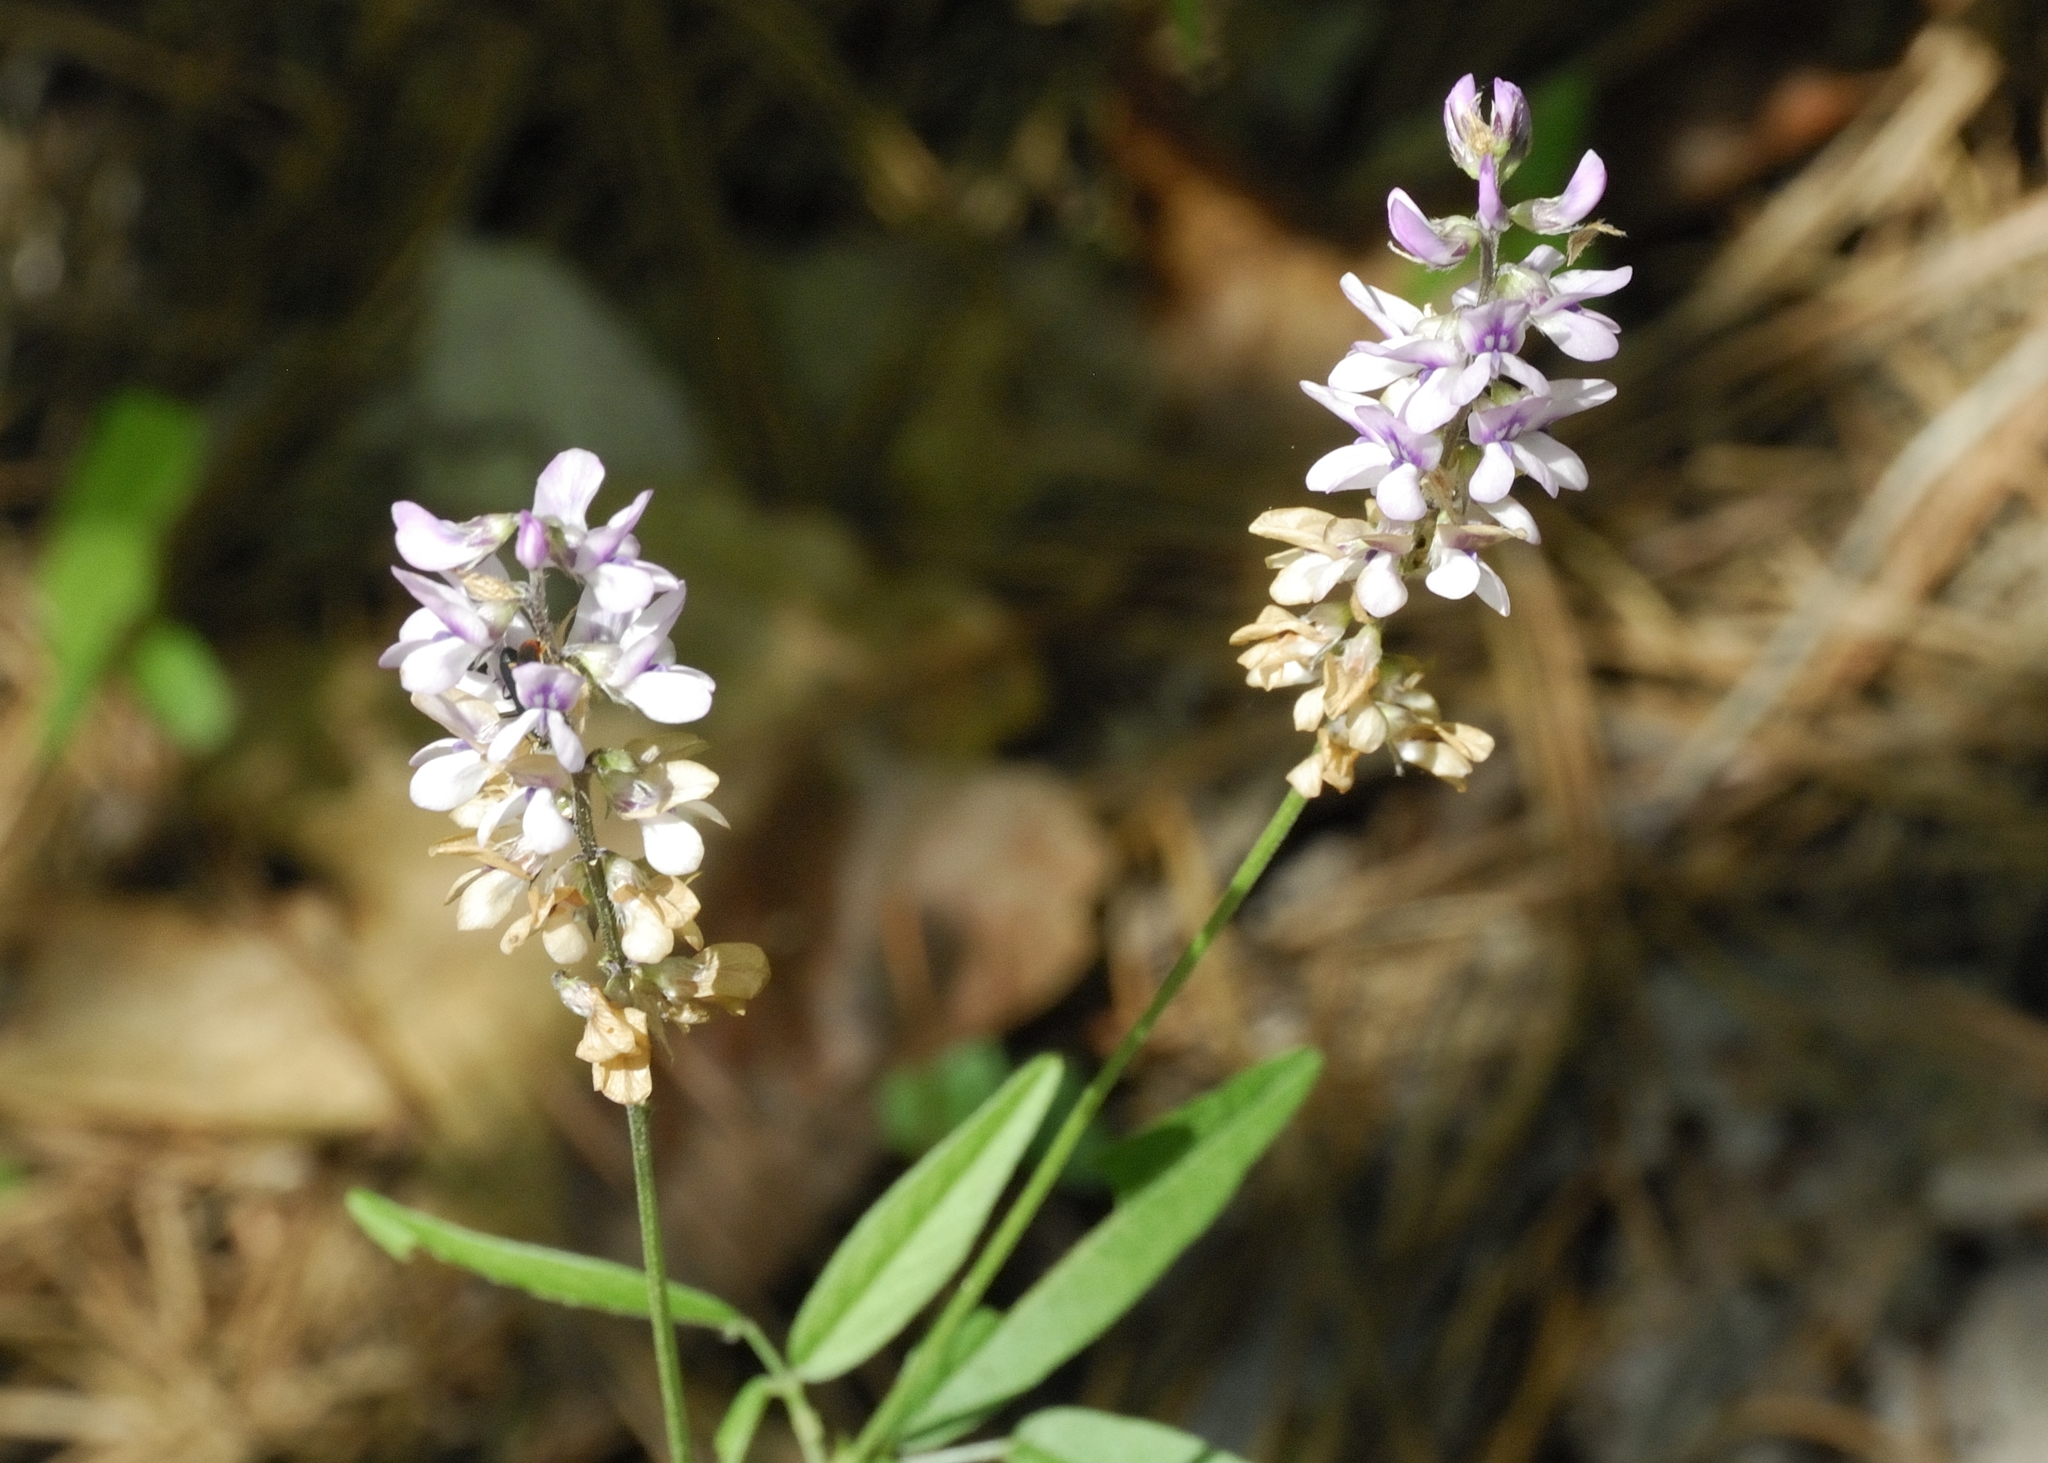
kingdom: Plantae
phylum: Tracheophyta
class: Magnoliopsida
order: Fabales
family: Fabaceae
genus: Orbexilum
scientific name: Orbexilum pedunculatum
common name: Sampson's snakeroot
